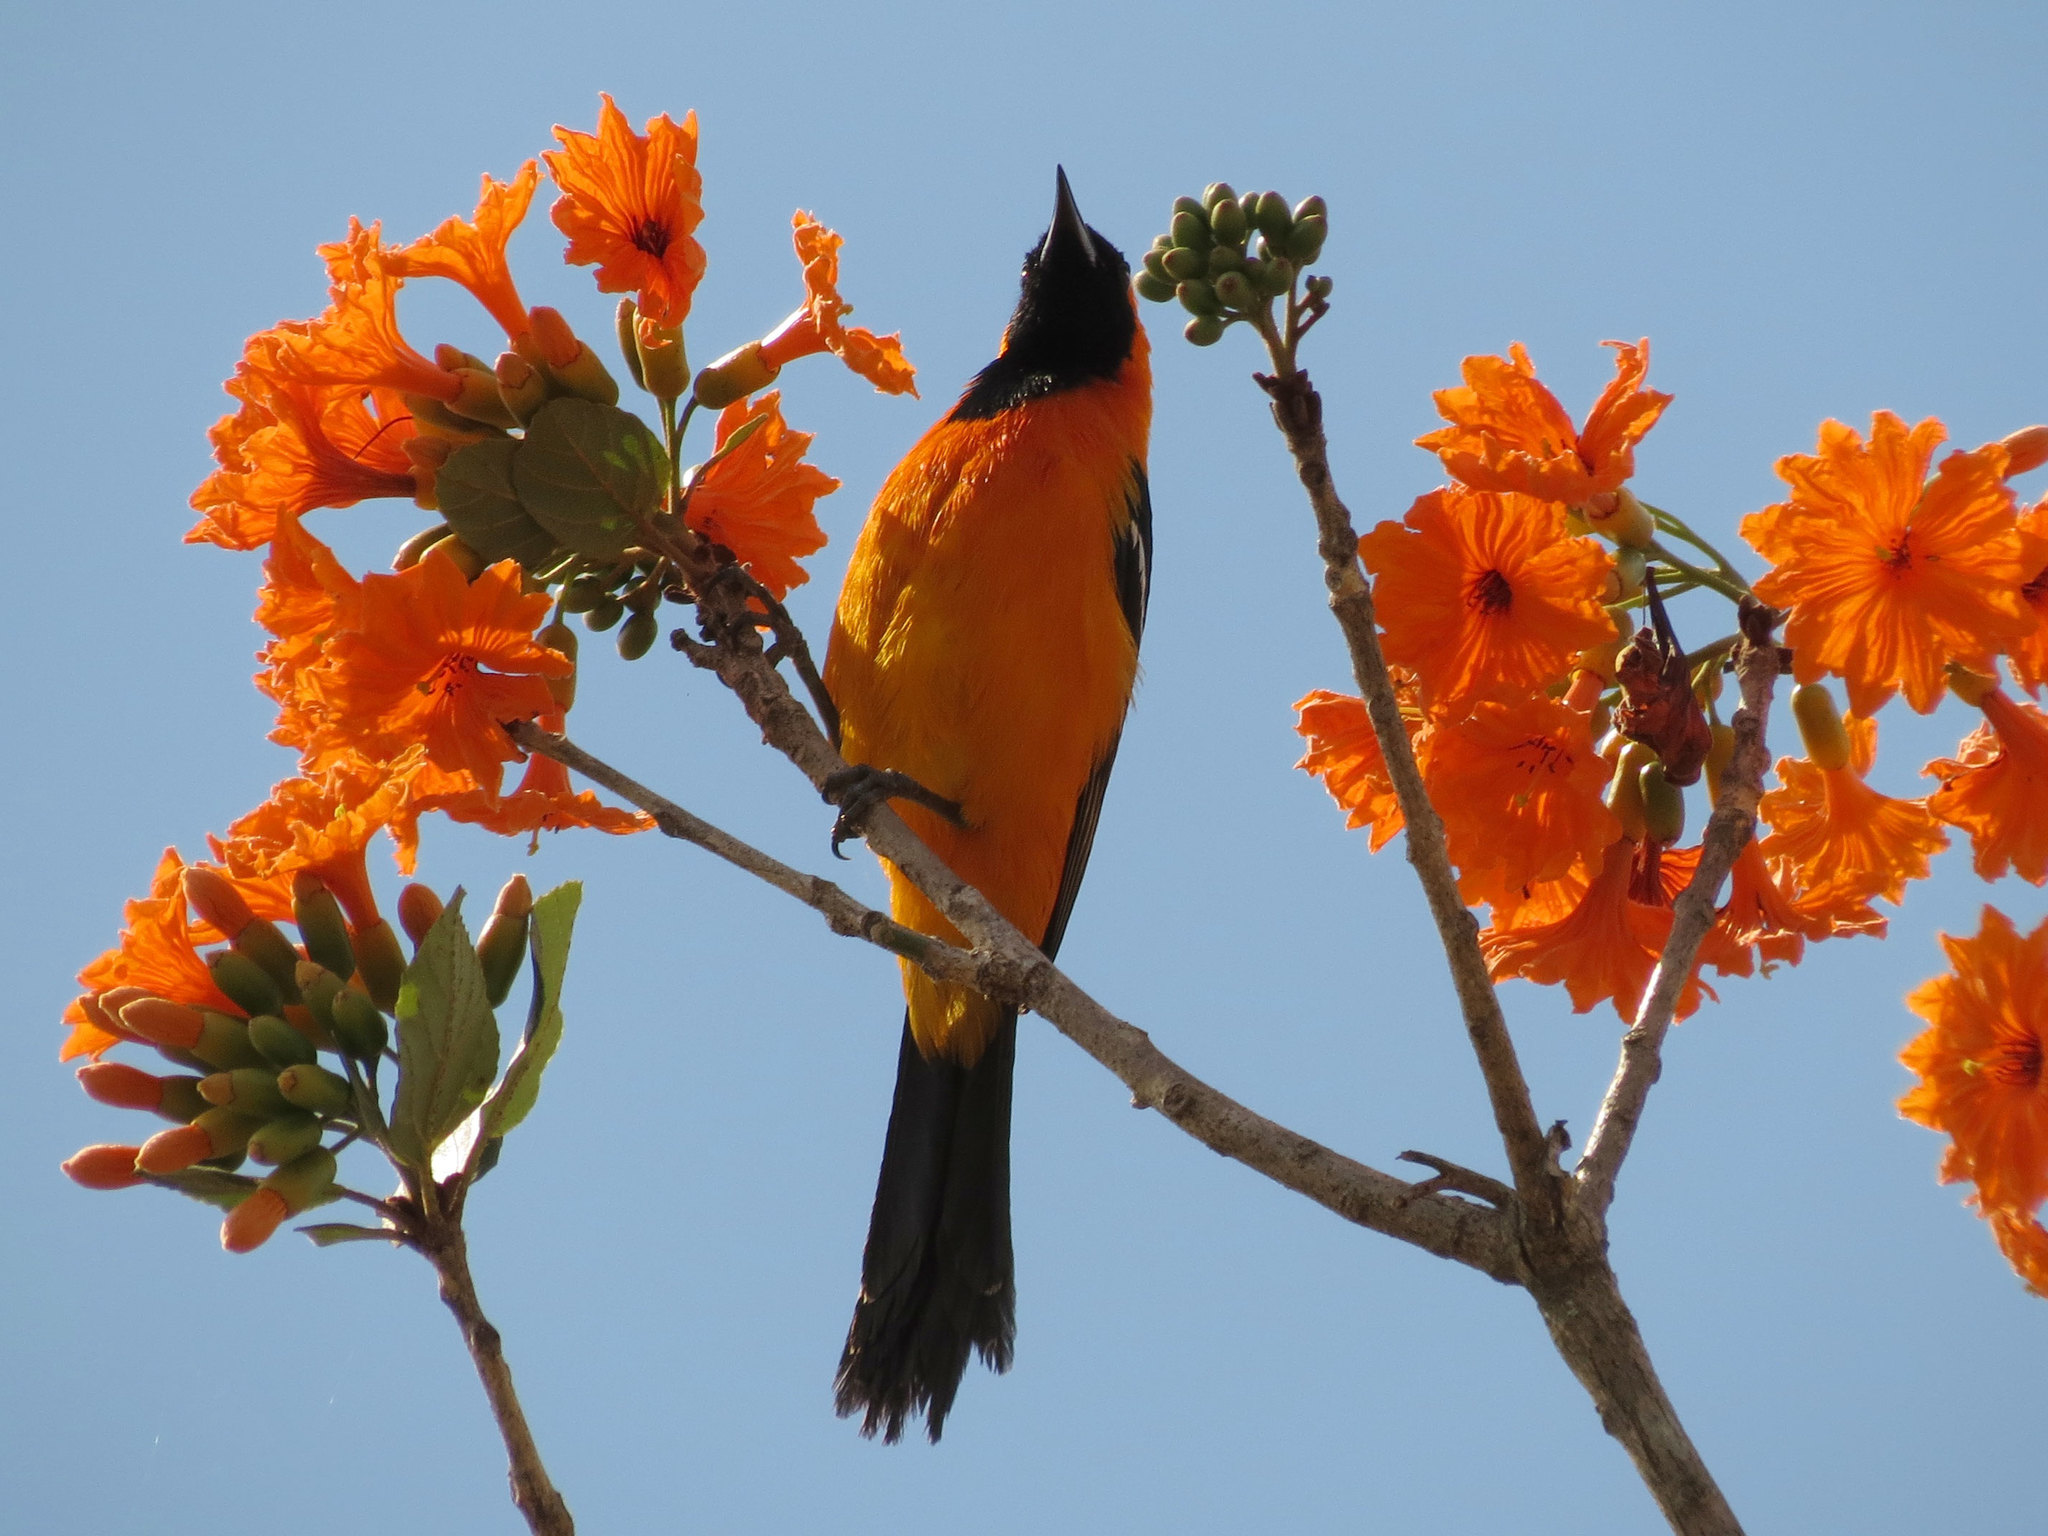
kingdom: Animalia
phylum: Chordata
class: Aves
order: Passeriformes
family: Icteridae
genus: Icterus
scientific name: Icterus cucullatus
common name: Hooded oriole
